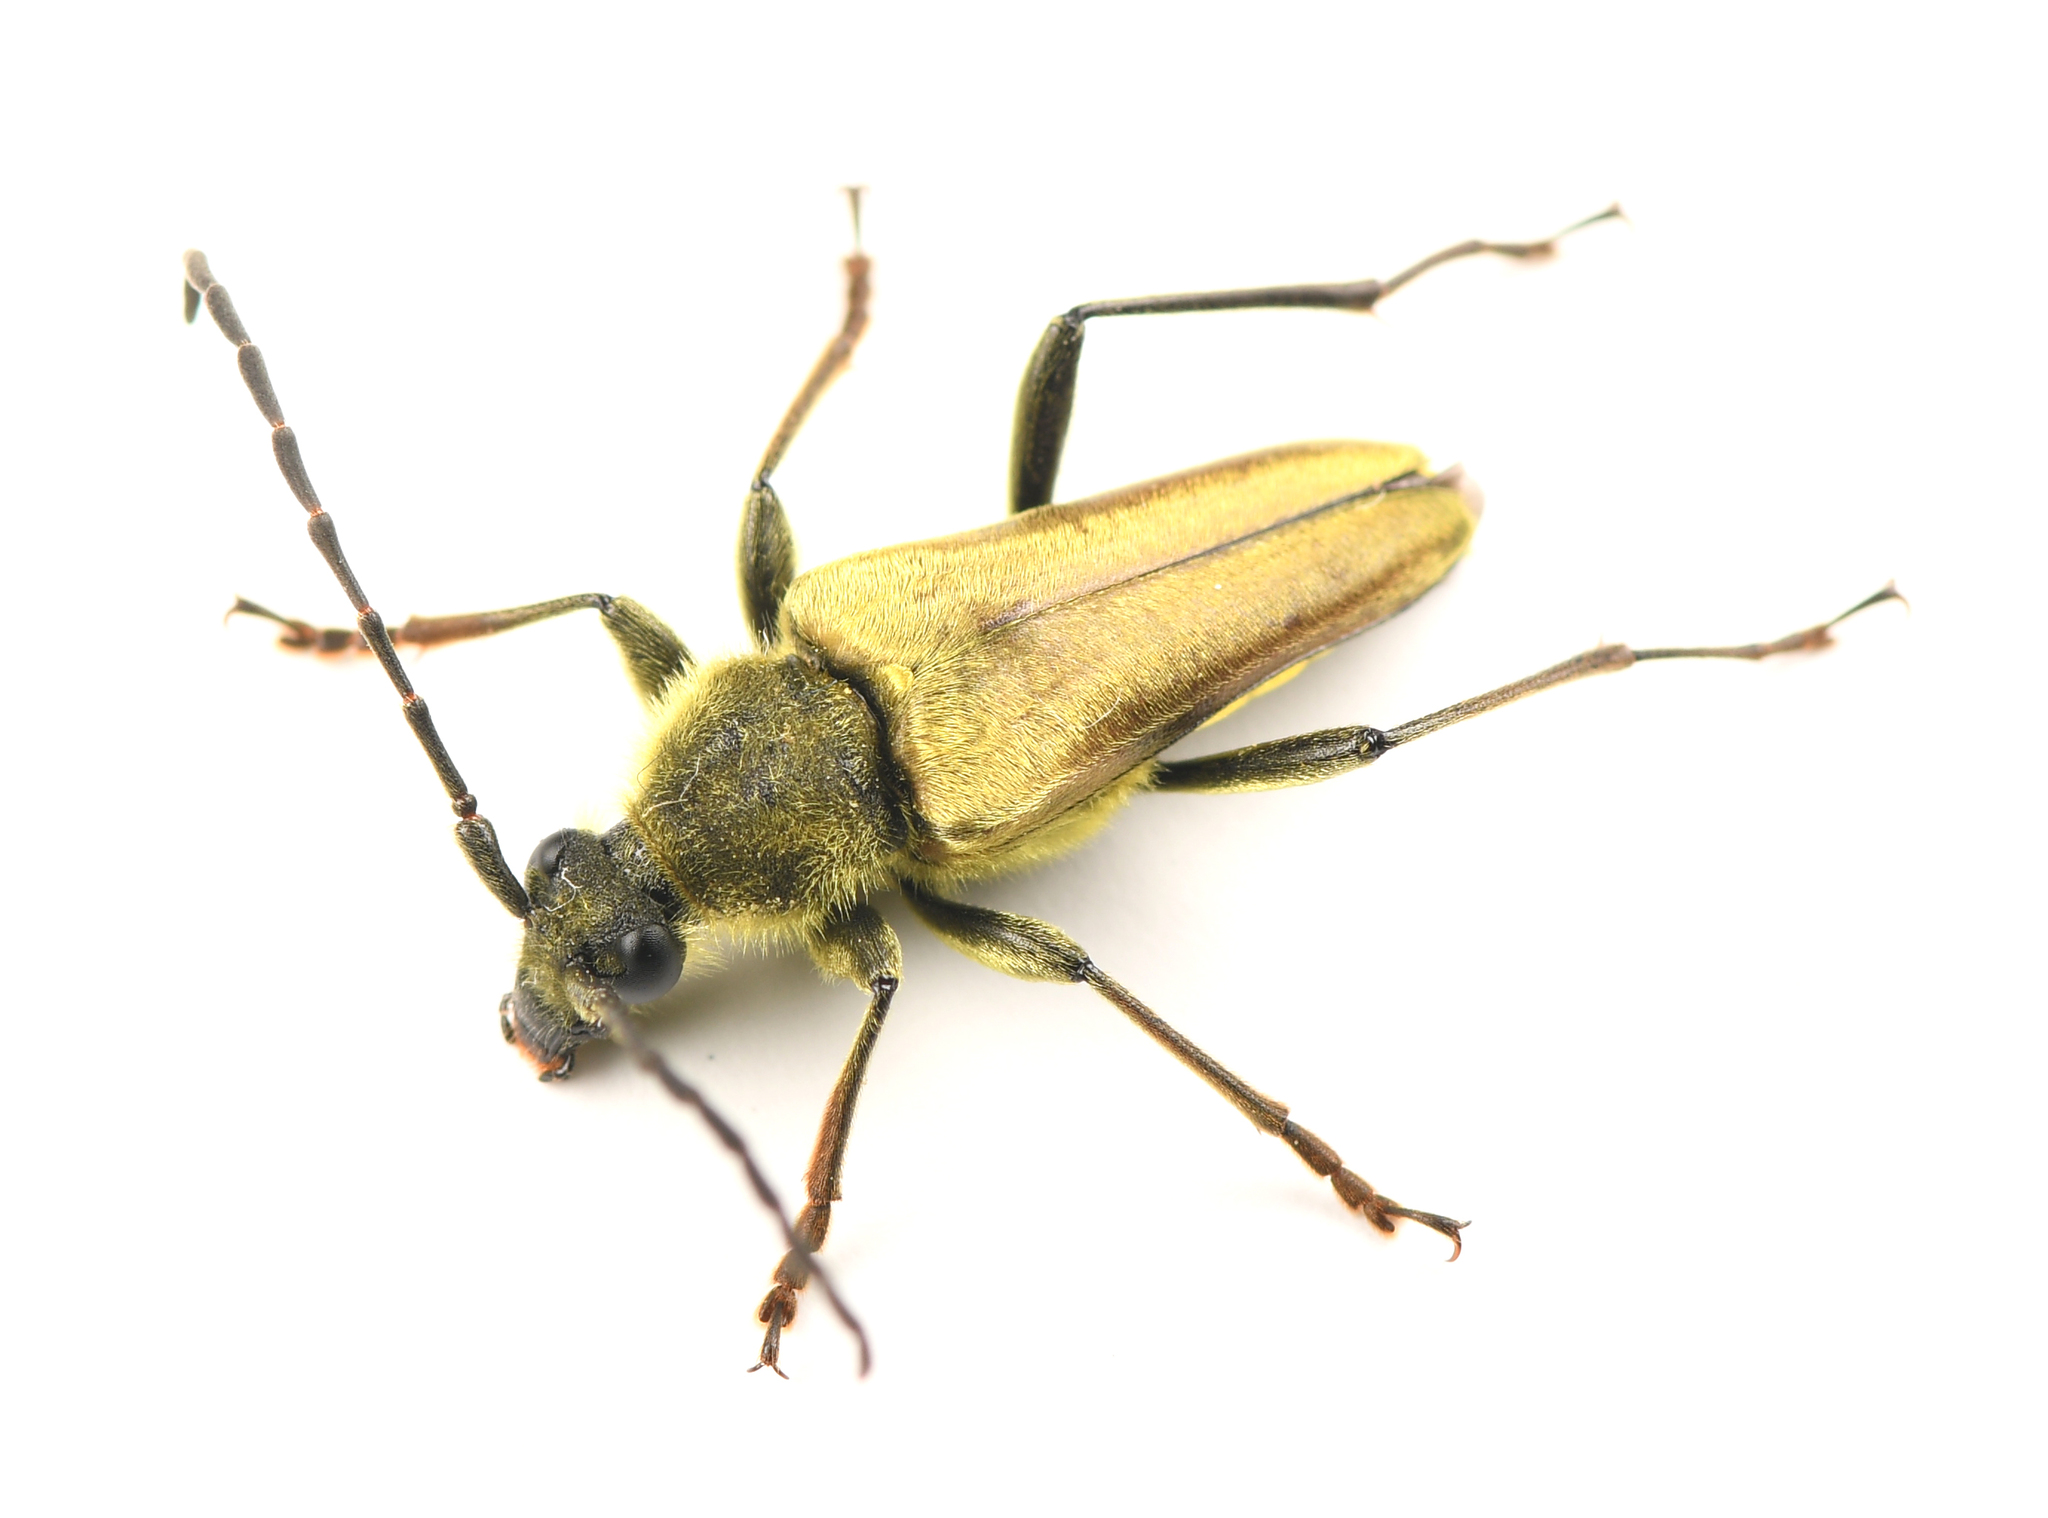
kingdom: Animalia
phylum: Arthropoda
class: Insecta
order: Coleoptera
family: Cerambycidae
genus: Cosmosalia
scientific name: Cosmosalia chrysocoma
